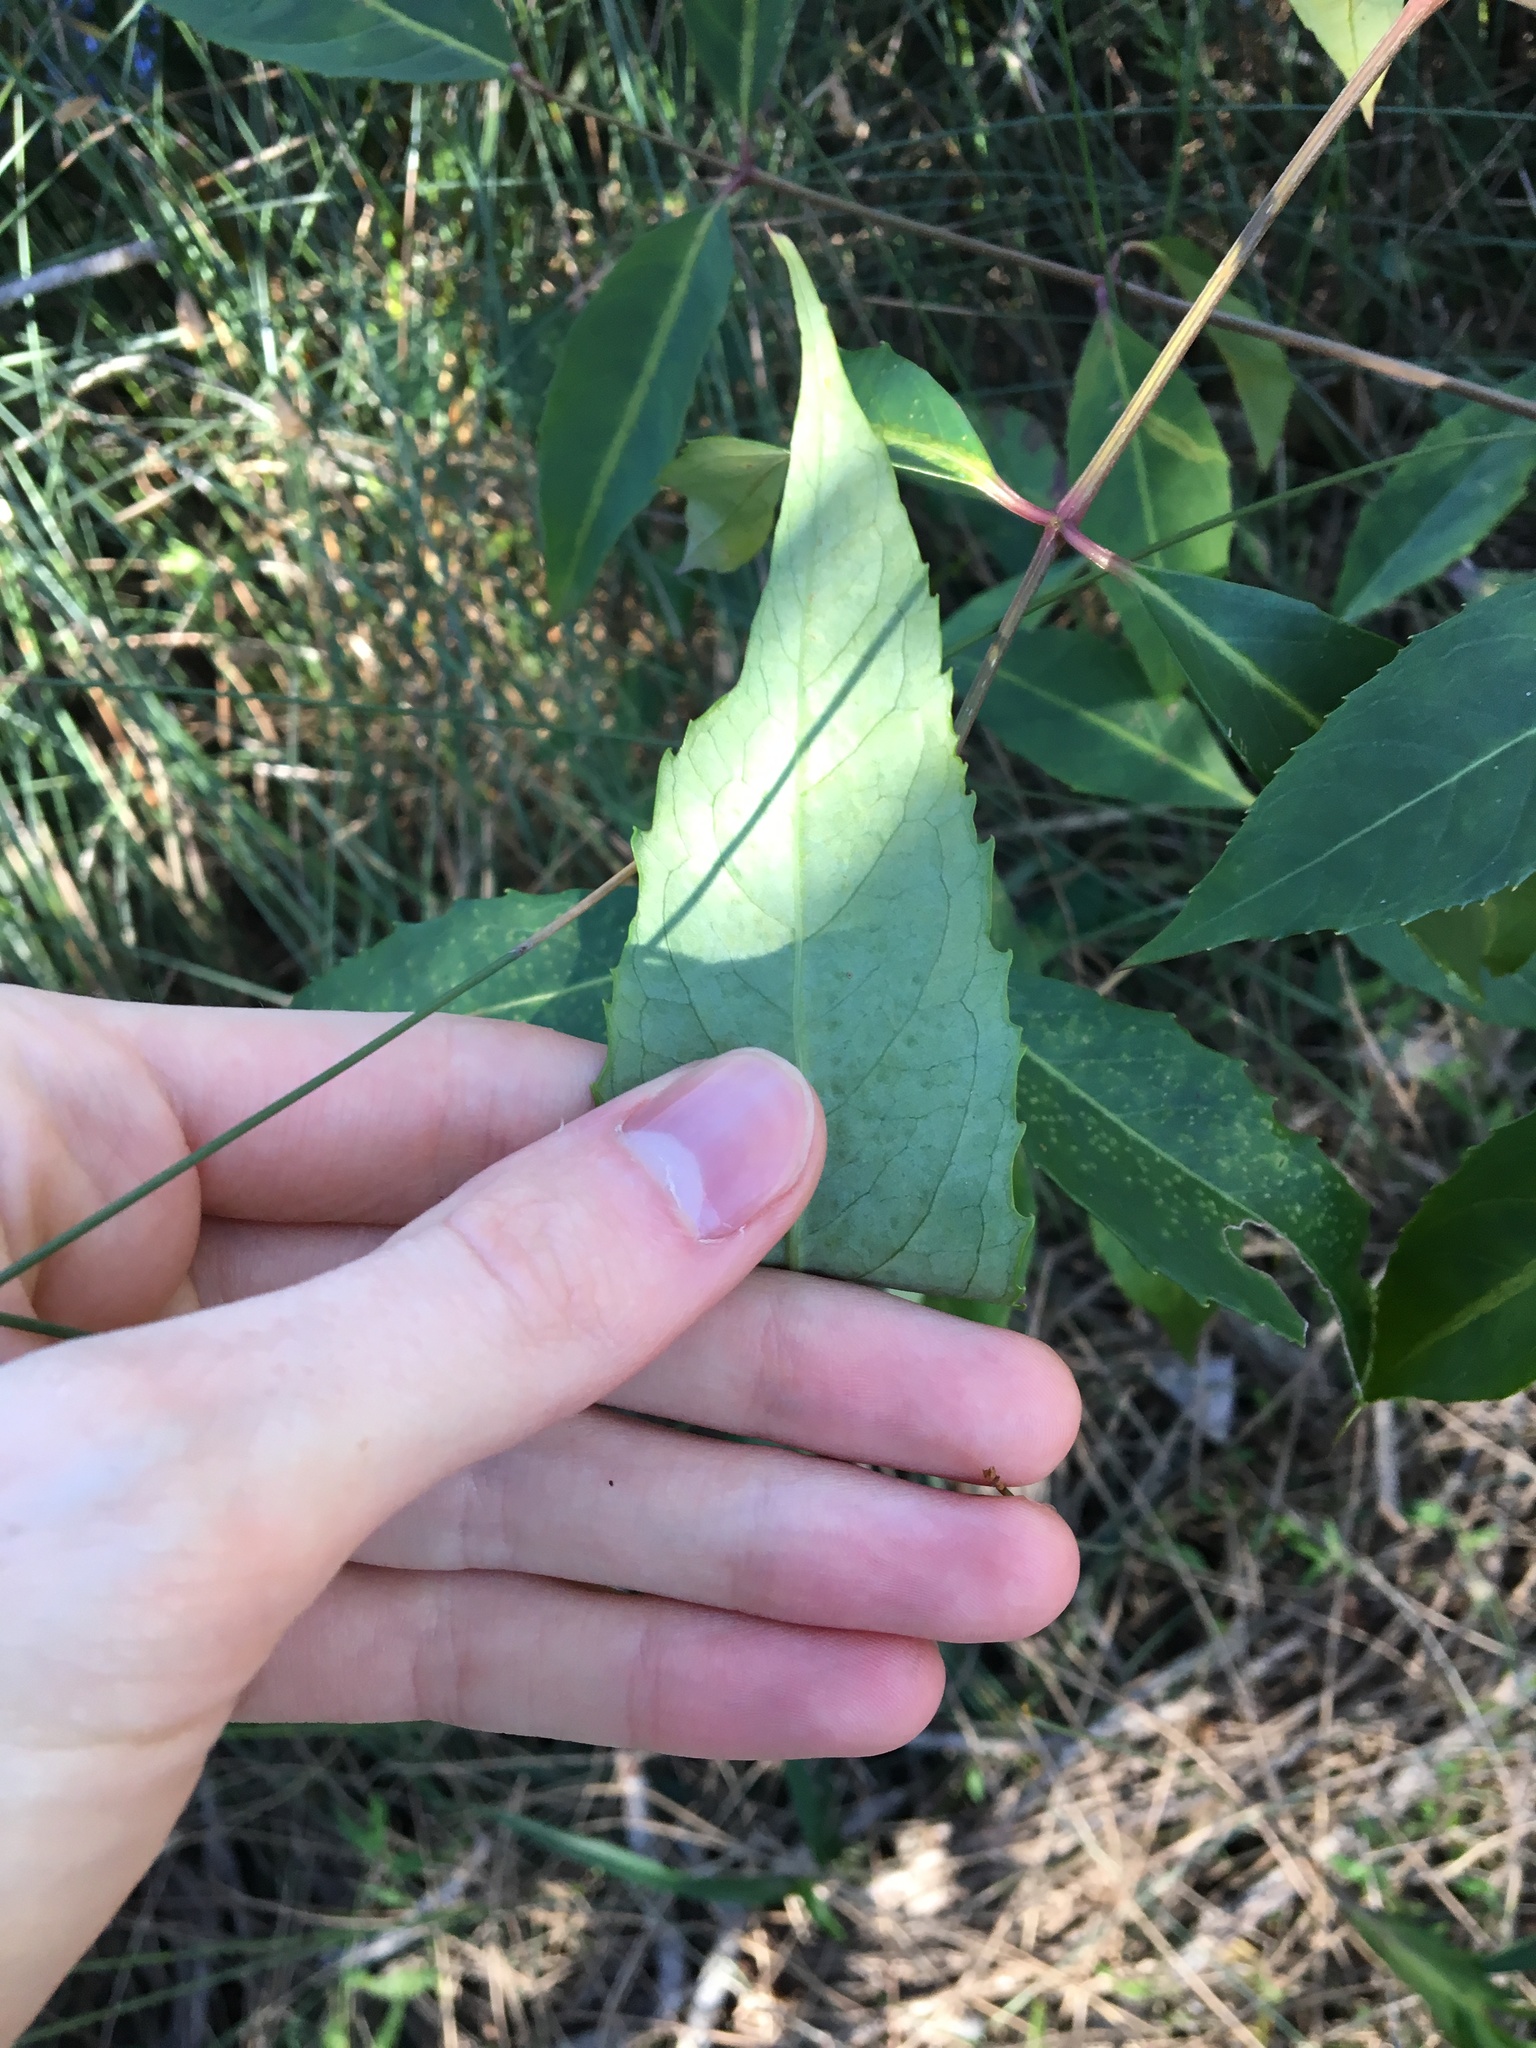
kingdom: Plantae
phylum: Tracheophyta
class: Magnoliopsida
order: Apiales
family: Araliaceae
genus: Polyscias
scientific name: Polyscias sambucifolia
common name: Elderberry-ash
